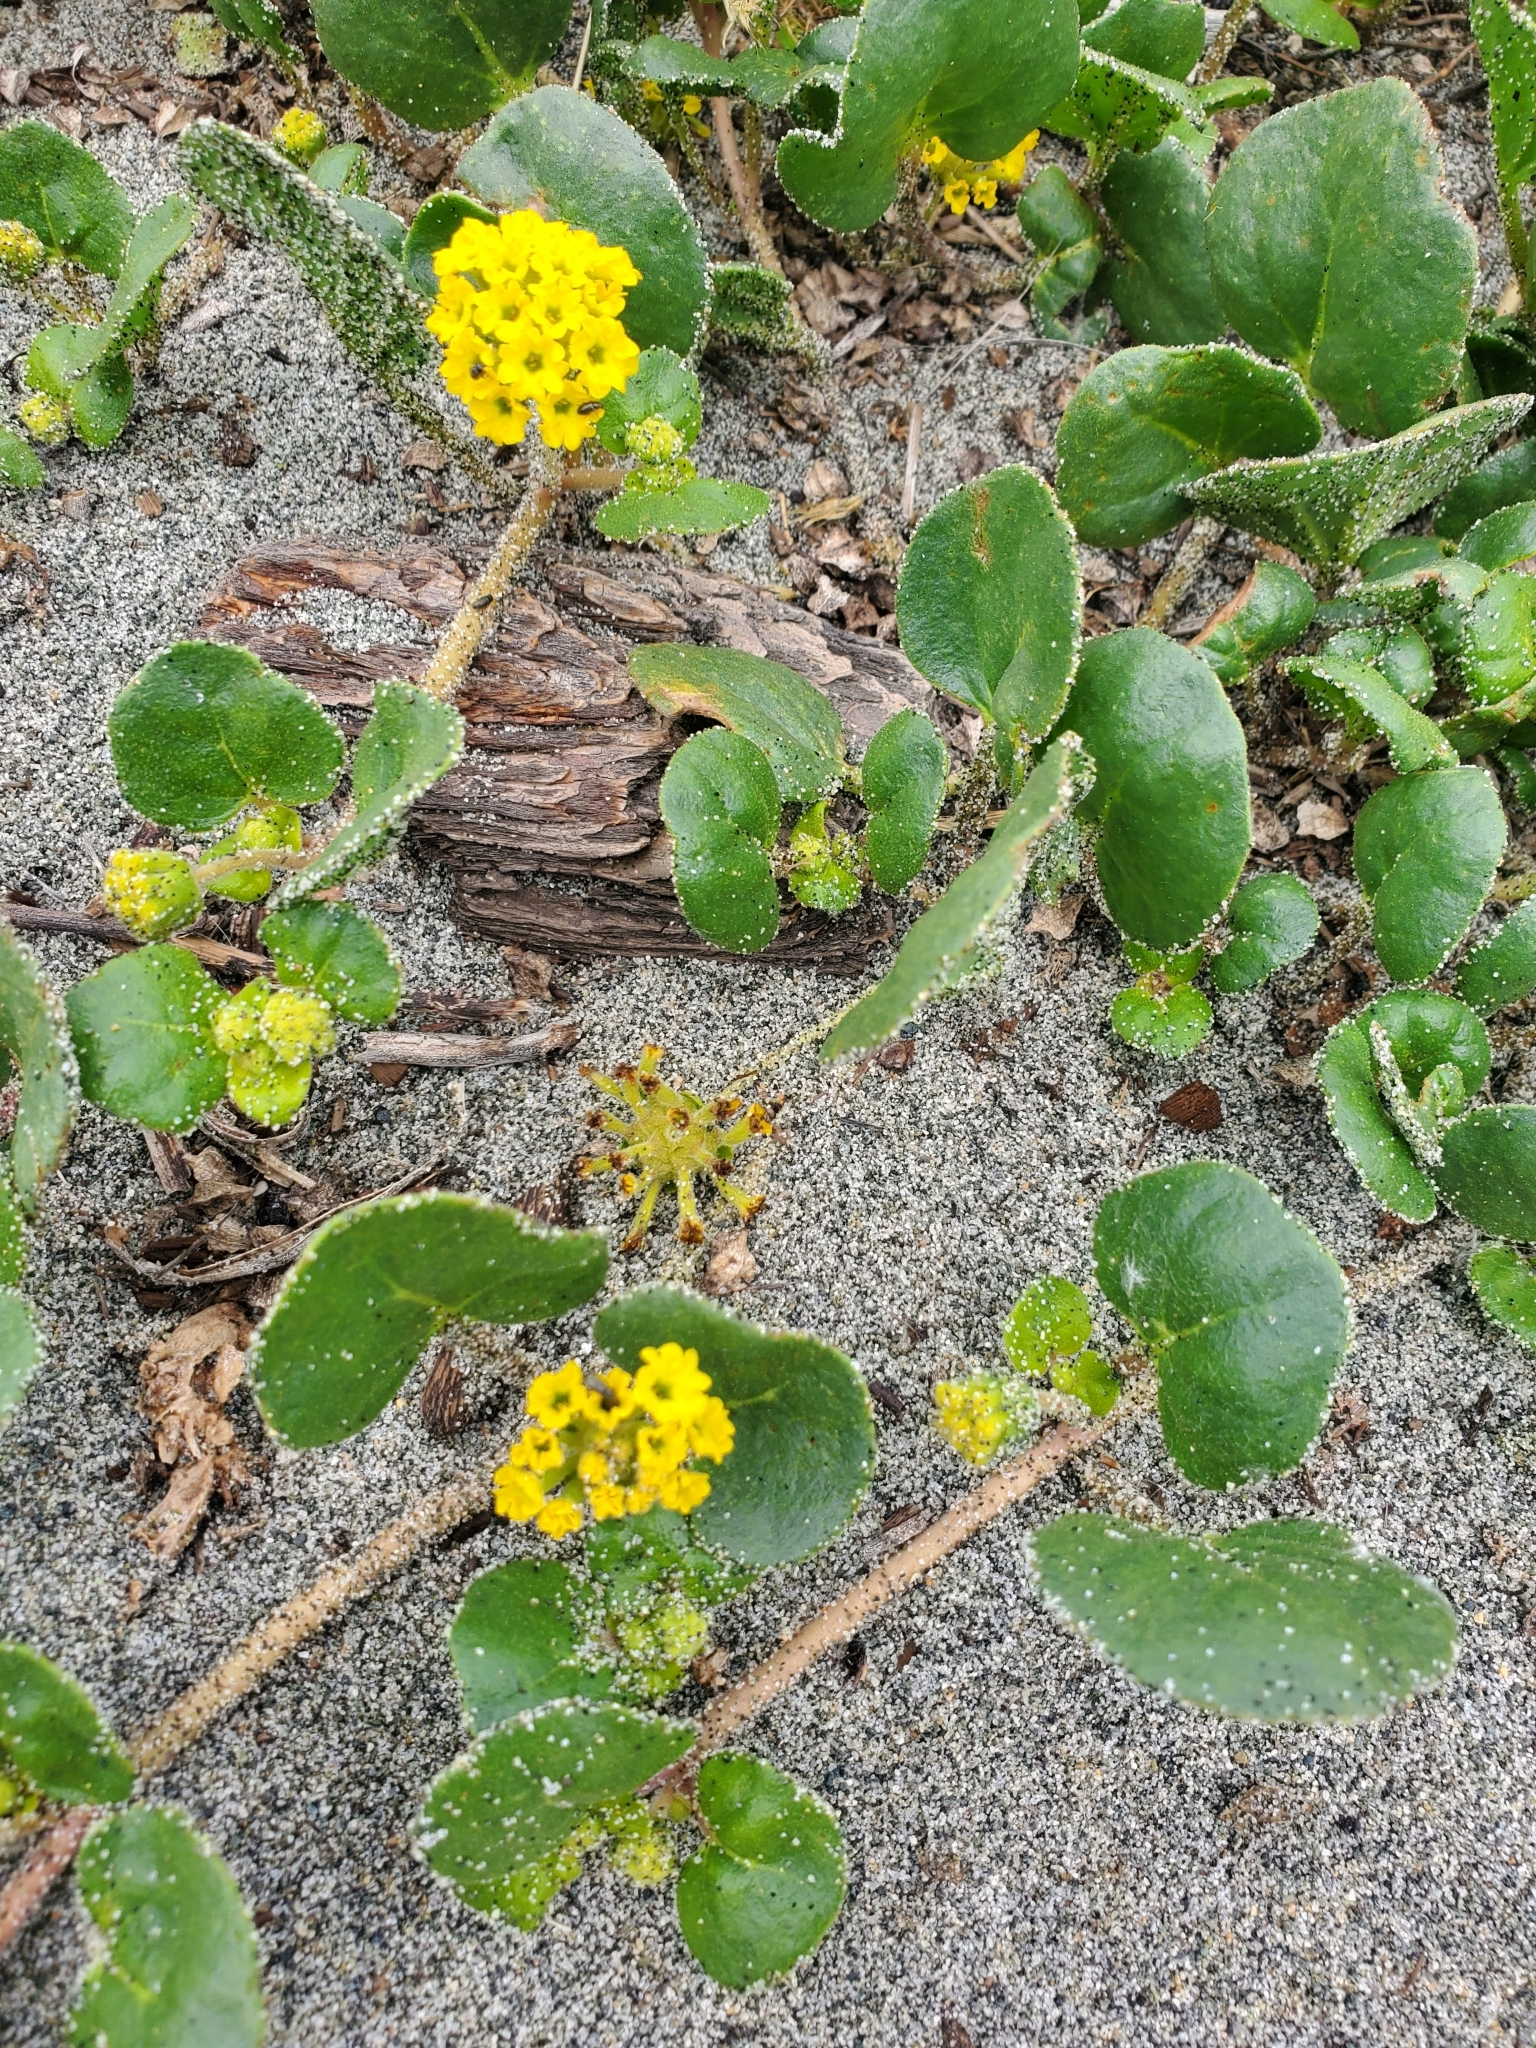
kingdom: Plantae
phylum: Tracheophyta
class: Magnoliopsida
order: Caryophyllales
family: Nyctaginaceae
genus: Abronia
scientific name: Abronia latifolia
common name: Yellow sand-verbena
